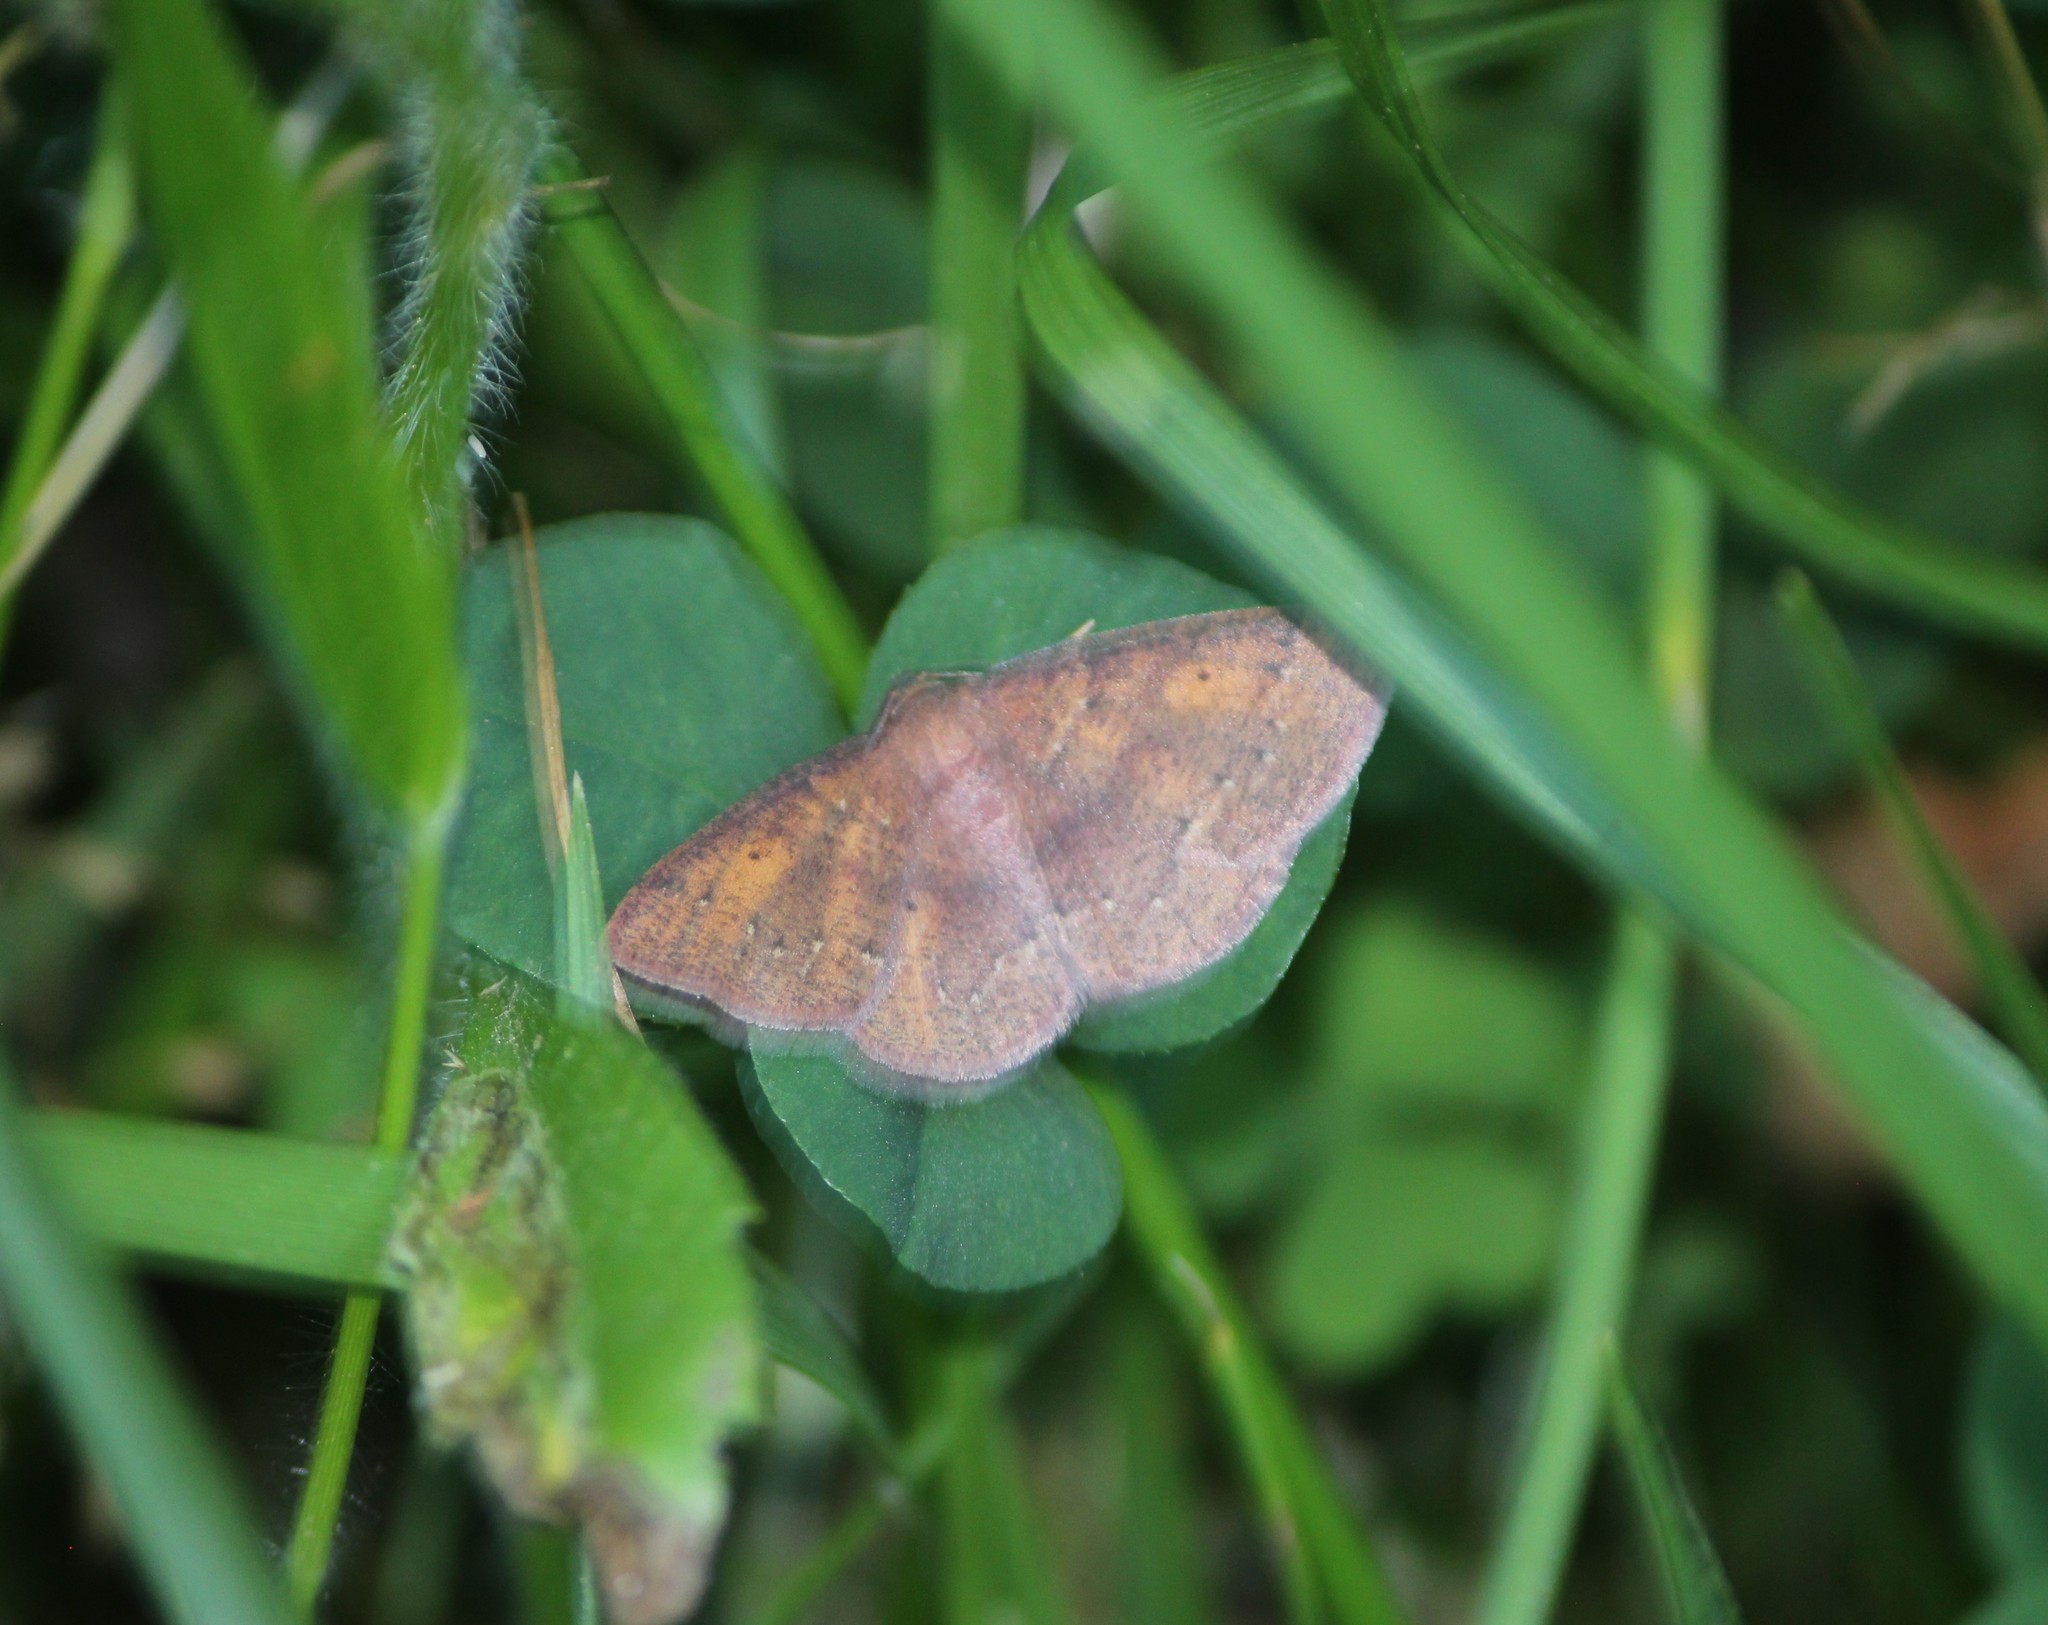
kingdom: Animalia
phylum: Arthropoda
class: Insecta
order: Lepidoptera
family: Geometridae
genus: Ilexia
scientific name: Ilexia intractata
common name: Black-dotted ruddy moth
